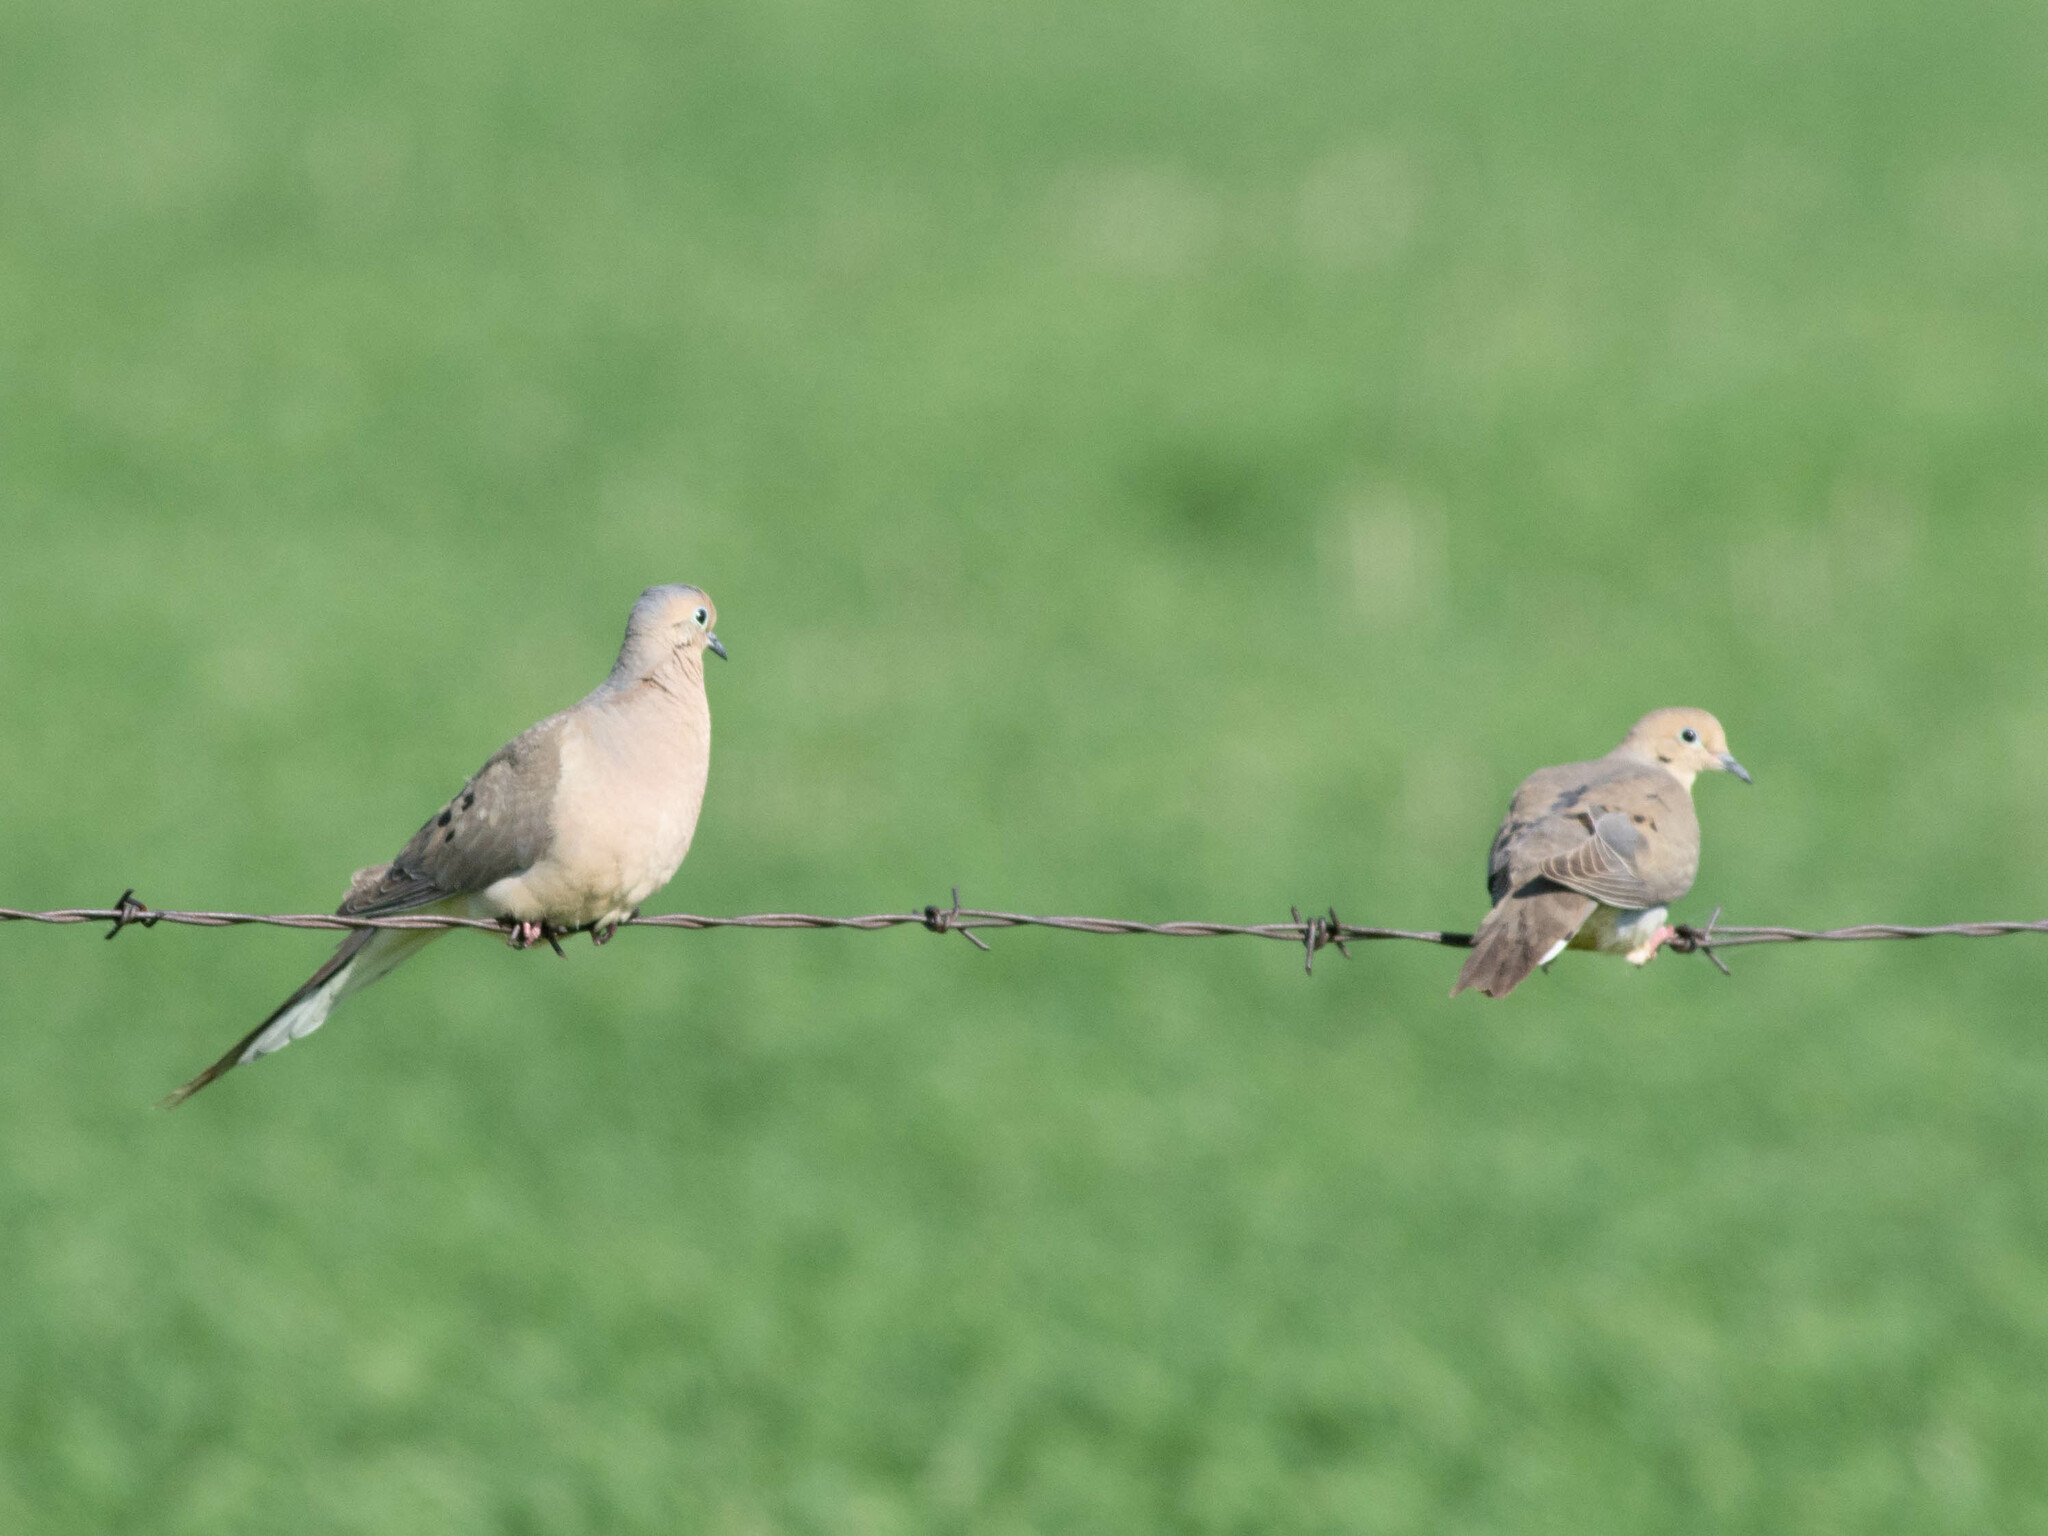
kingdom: Animalia
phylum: Chordata
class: Aves
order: Columbiformes
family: Columbidae
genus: Zenaida
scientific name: Zenaida macroura
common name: Mourning dove
